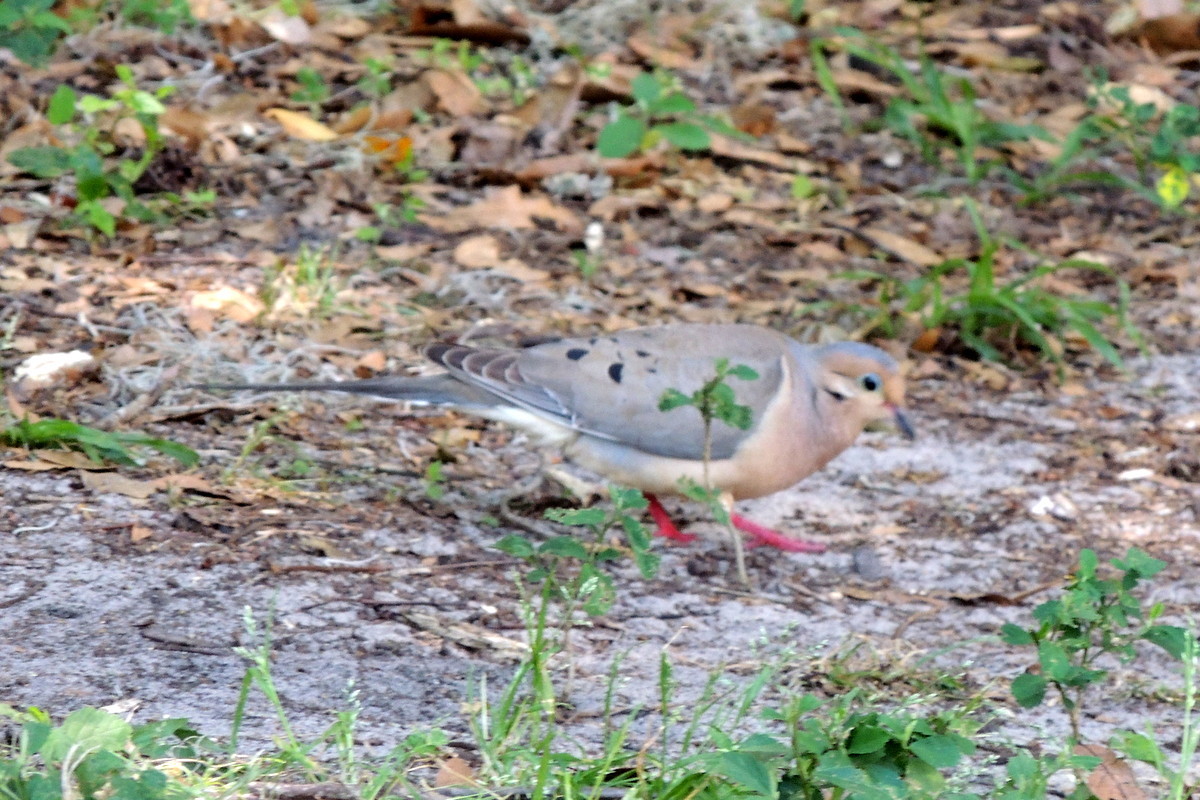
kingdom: Animalia
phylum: Chordata
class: Aves
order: Columbiformes
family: Columbidae
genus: Zenaida
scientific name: Zenaida macroura
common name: Mourning dove
